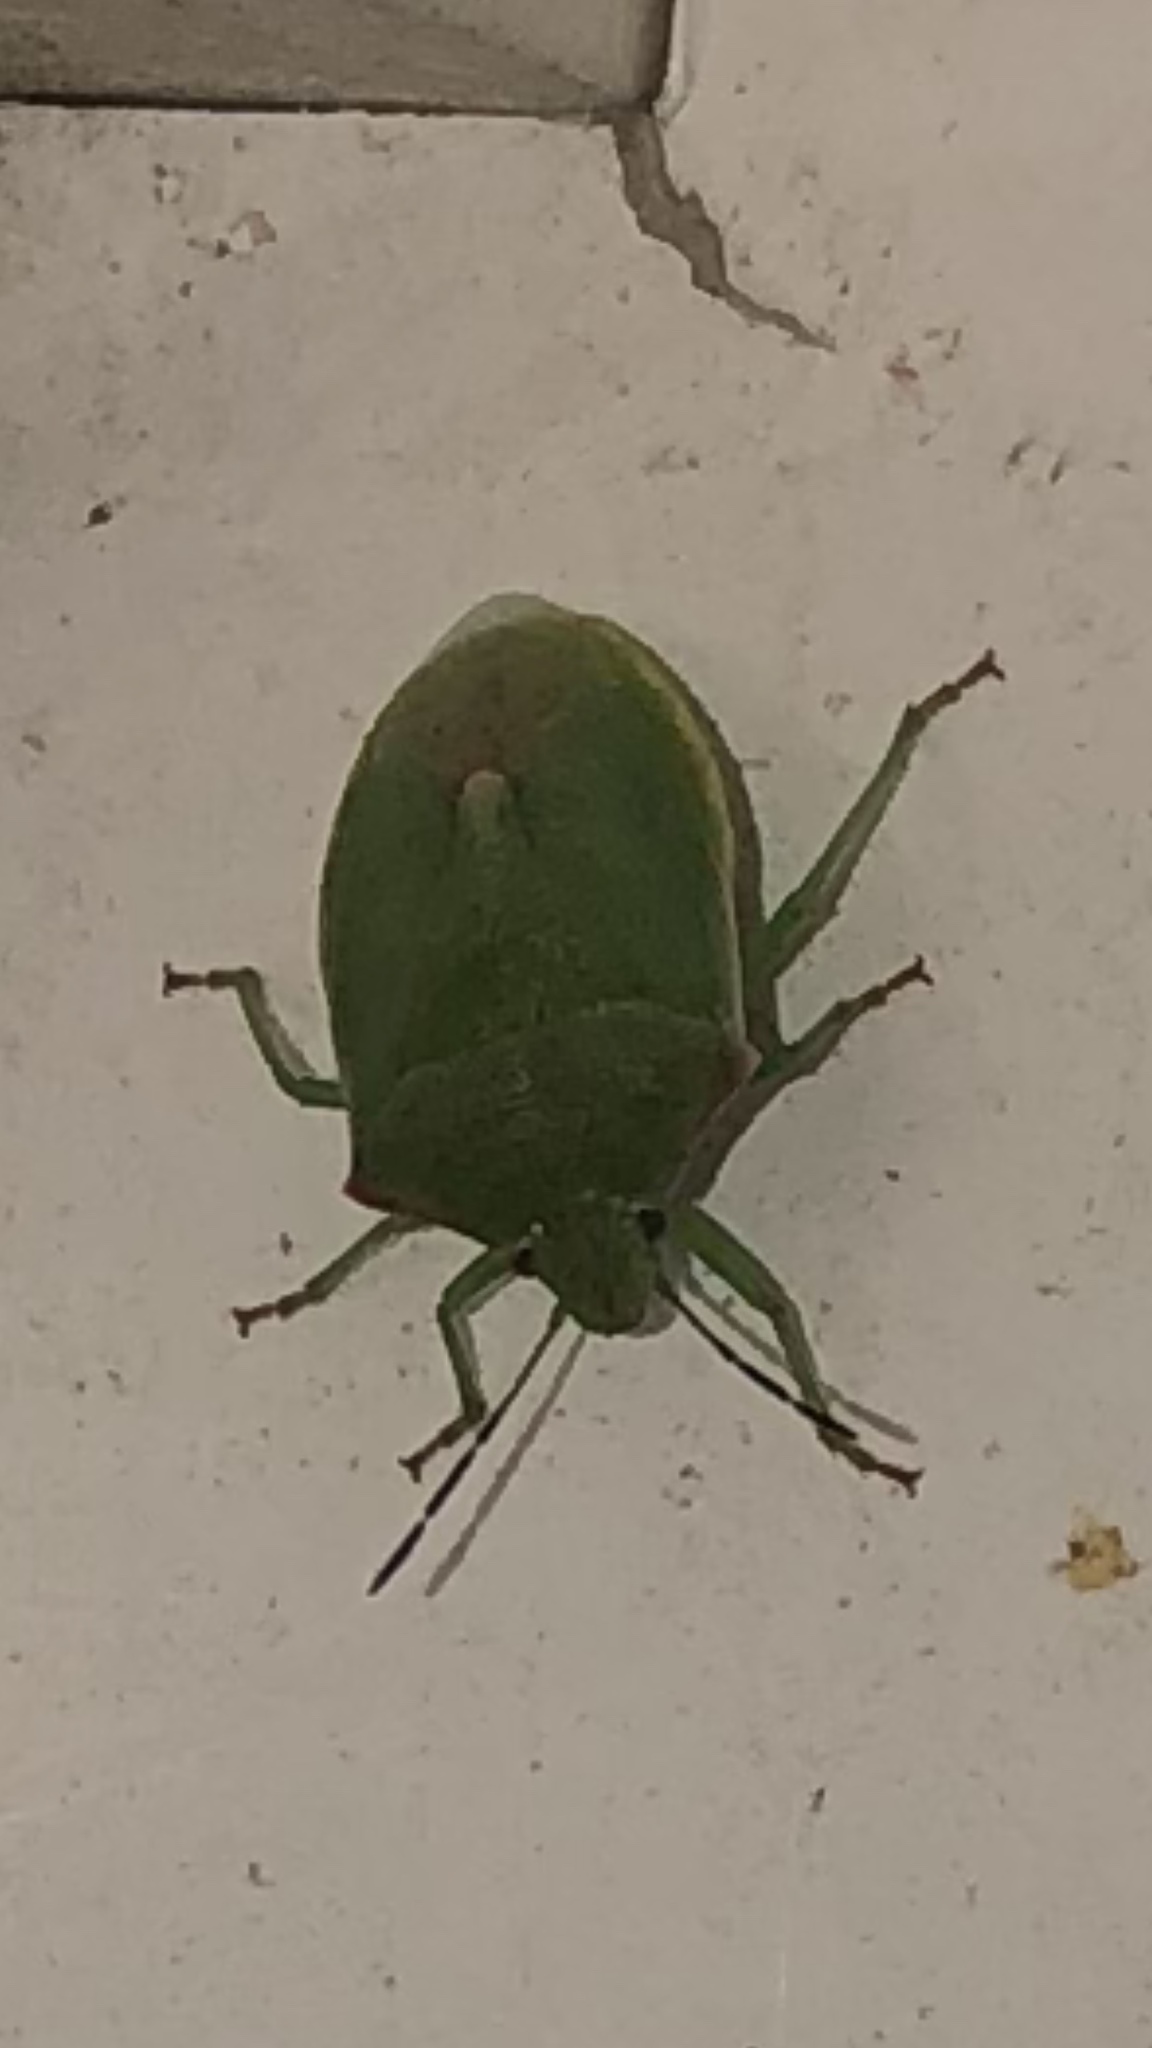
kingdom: Animalia
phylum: Arthropoda
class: Insecta
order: Hemiptera
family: Pentatomidae
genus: Thyanta
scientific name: Thyanta accerra
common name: Stink bug
